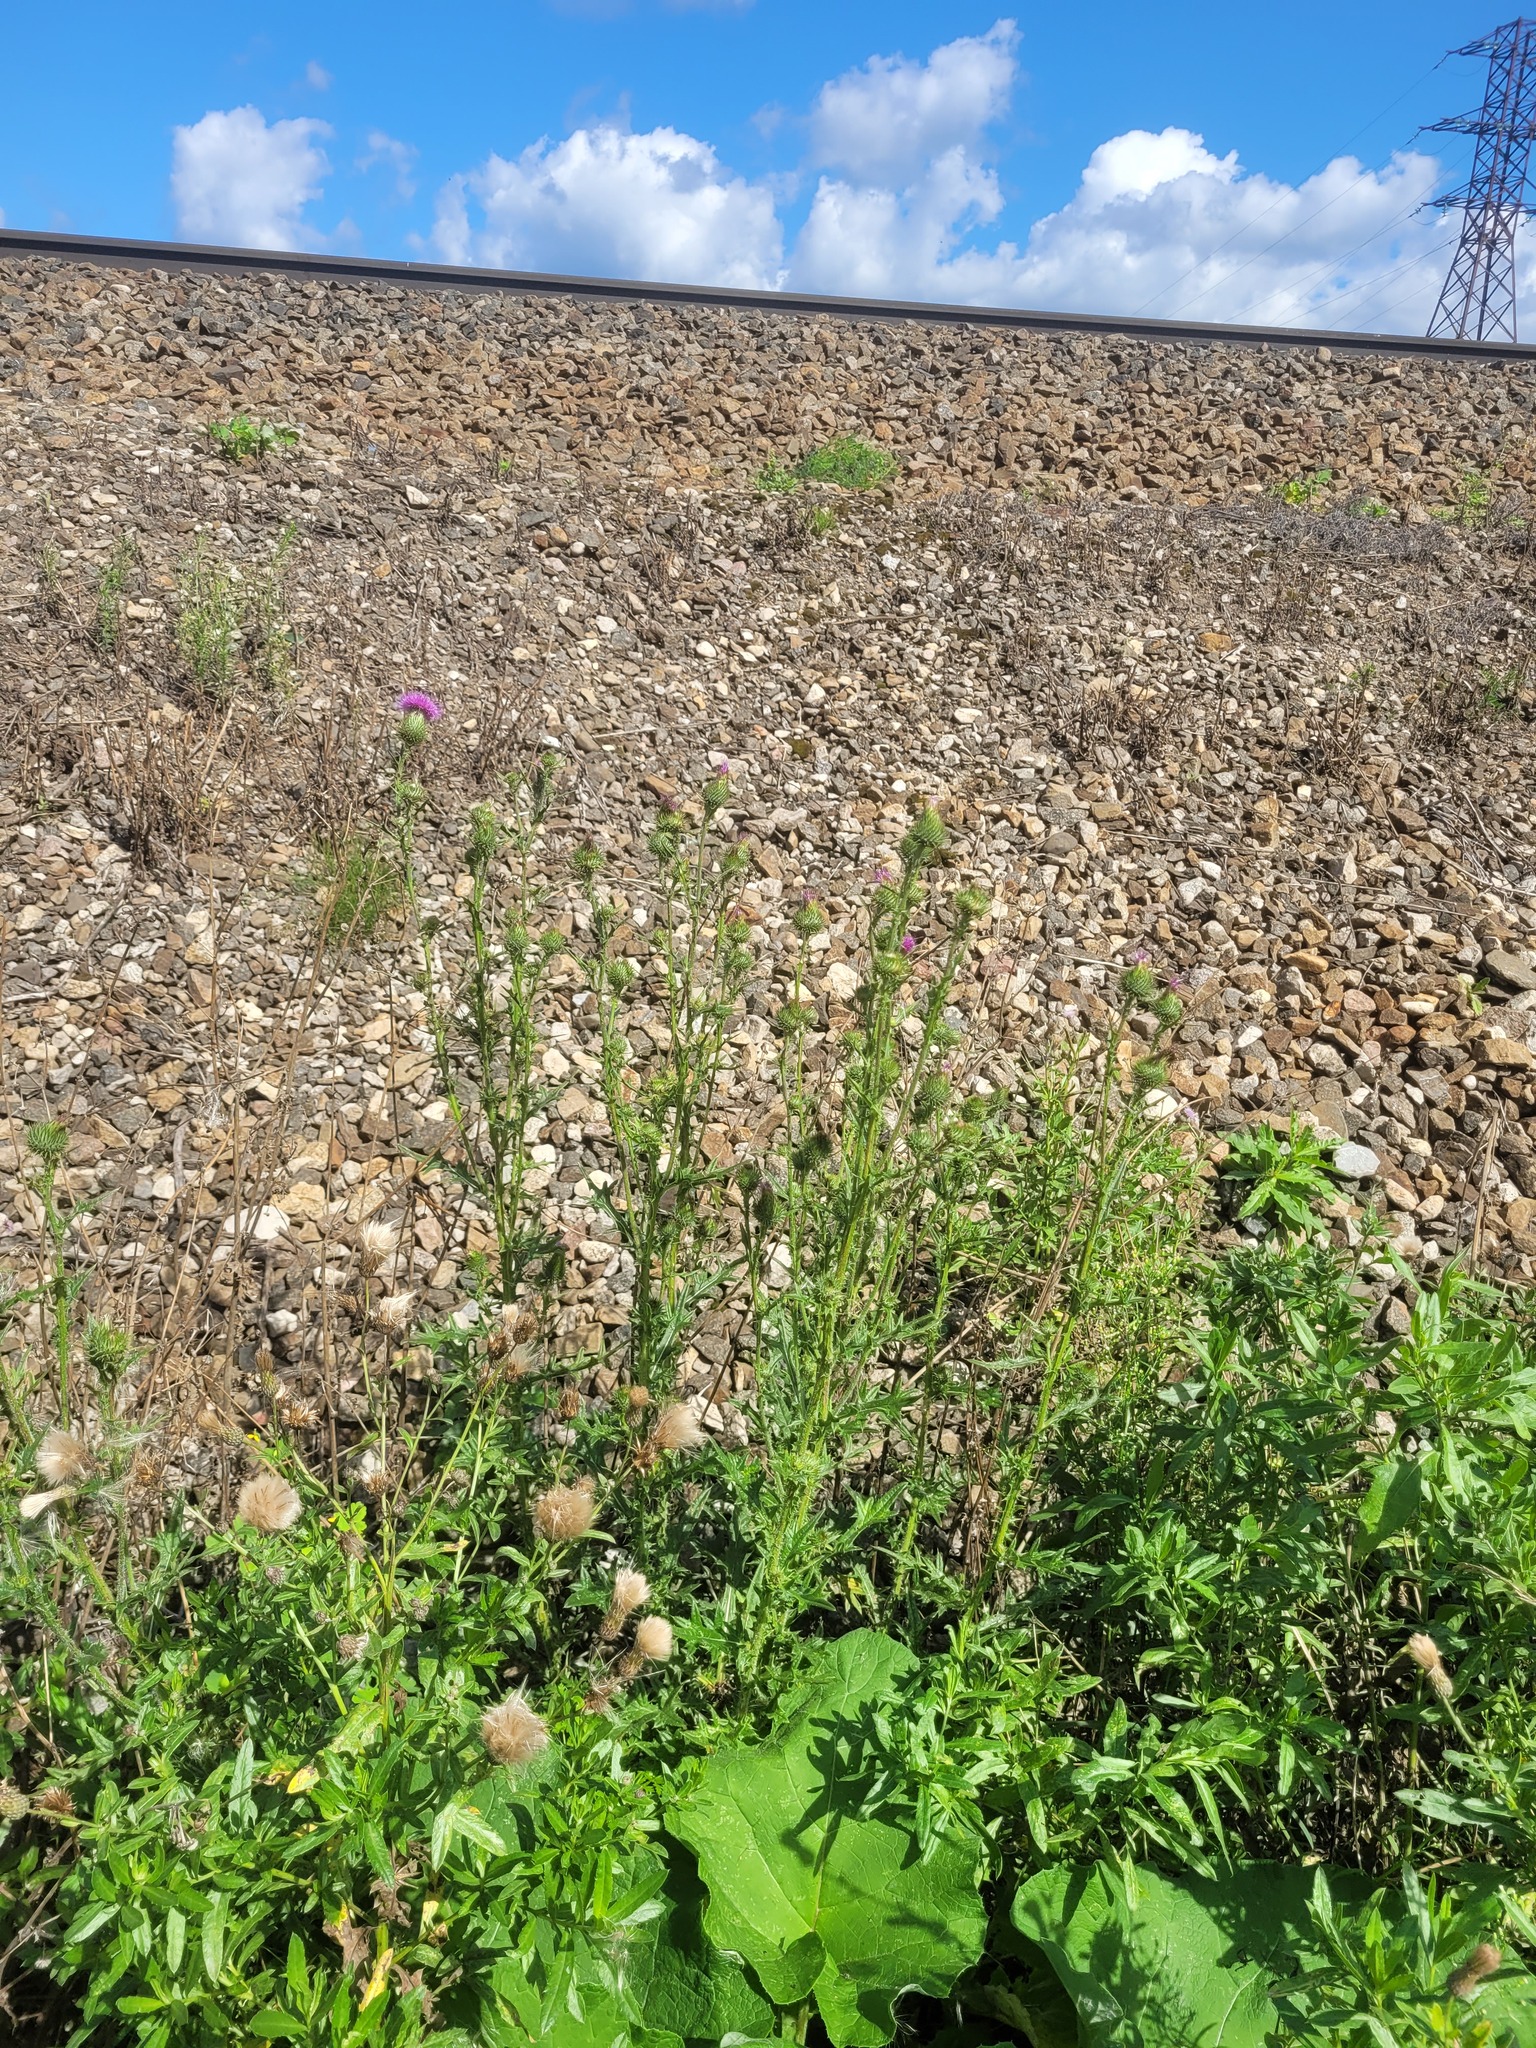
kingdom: Plantae
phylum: Tracheophyta
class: Magnoliopsida
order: Asterales
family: Asteraceae
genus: Cirsium
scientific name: Cirsium vulgare
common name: Bull thistle
